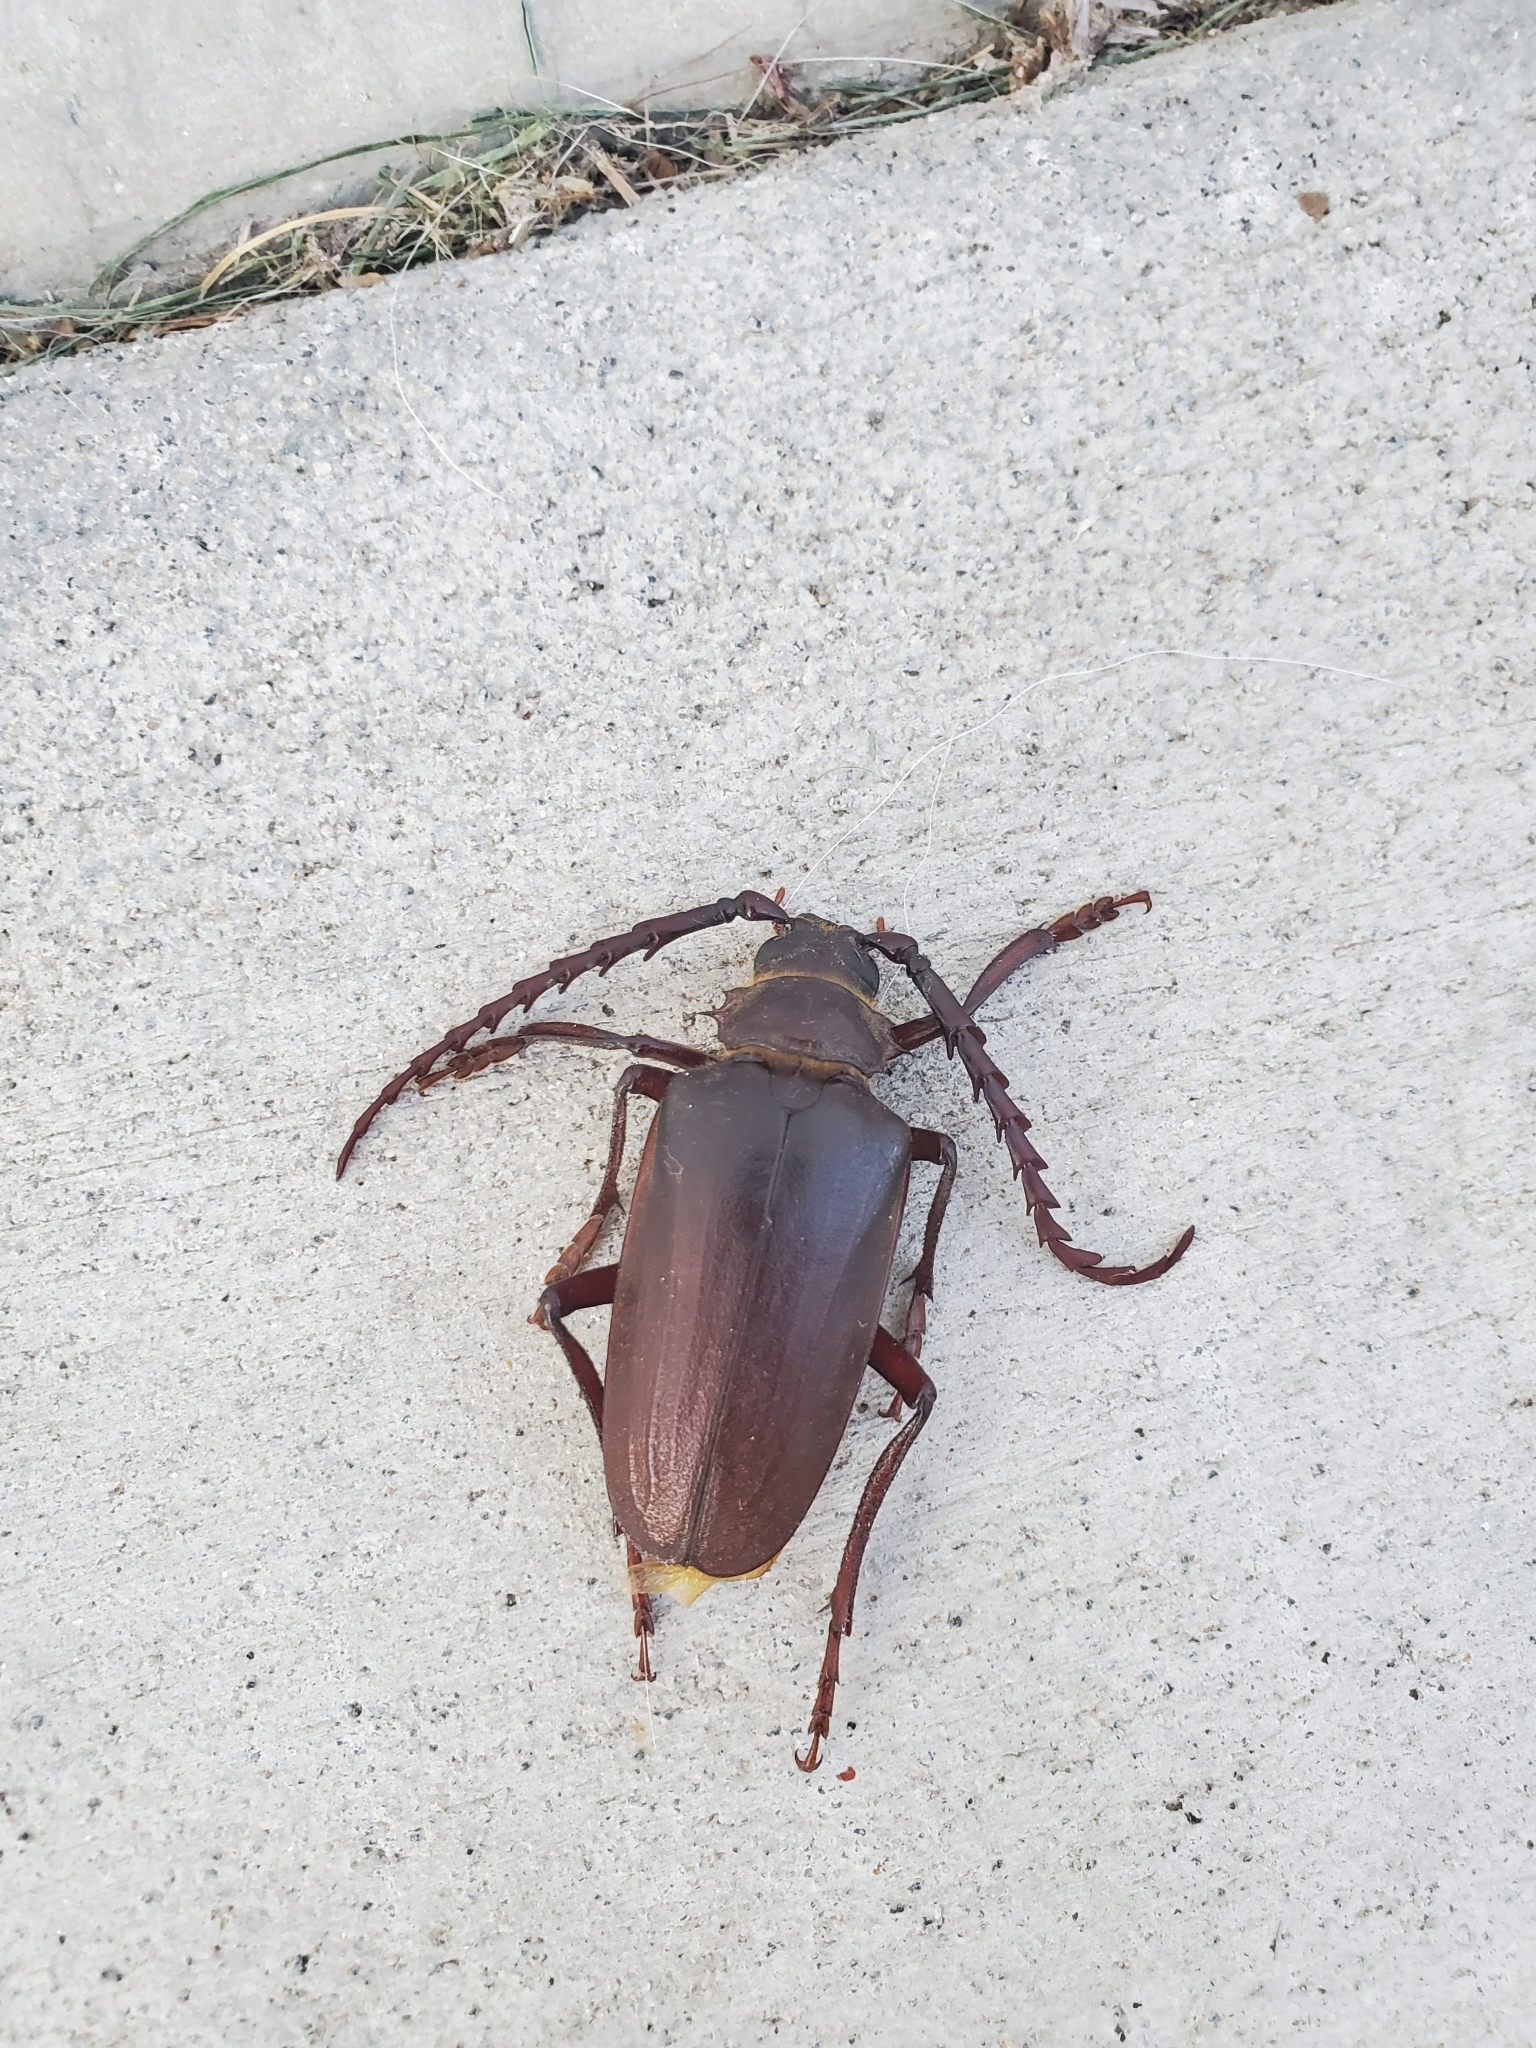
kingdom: Animalia
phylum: Arthropoda
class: Insecta
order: Coleoptera
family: Cerambycidae
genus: Prionus
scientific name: Prionus californicus
